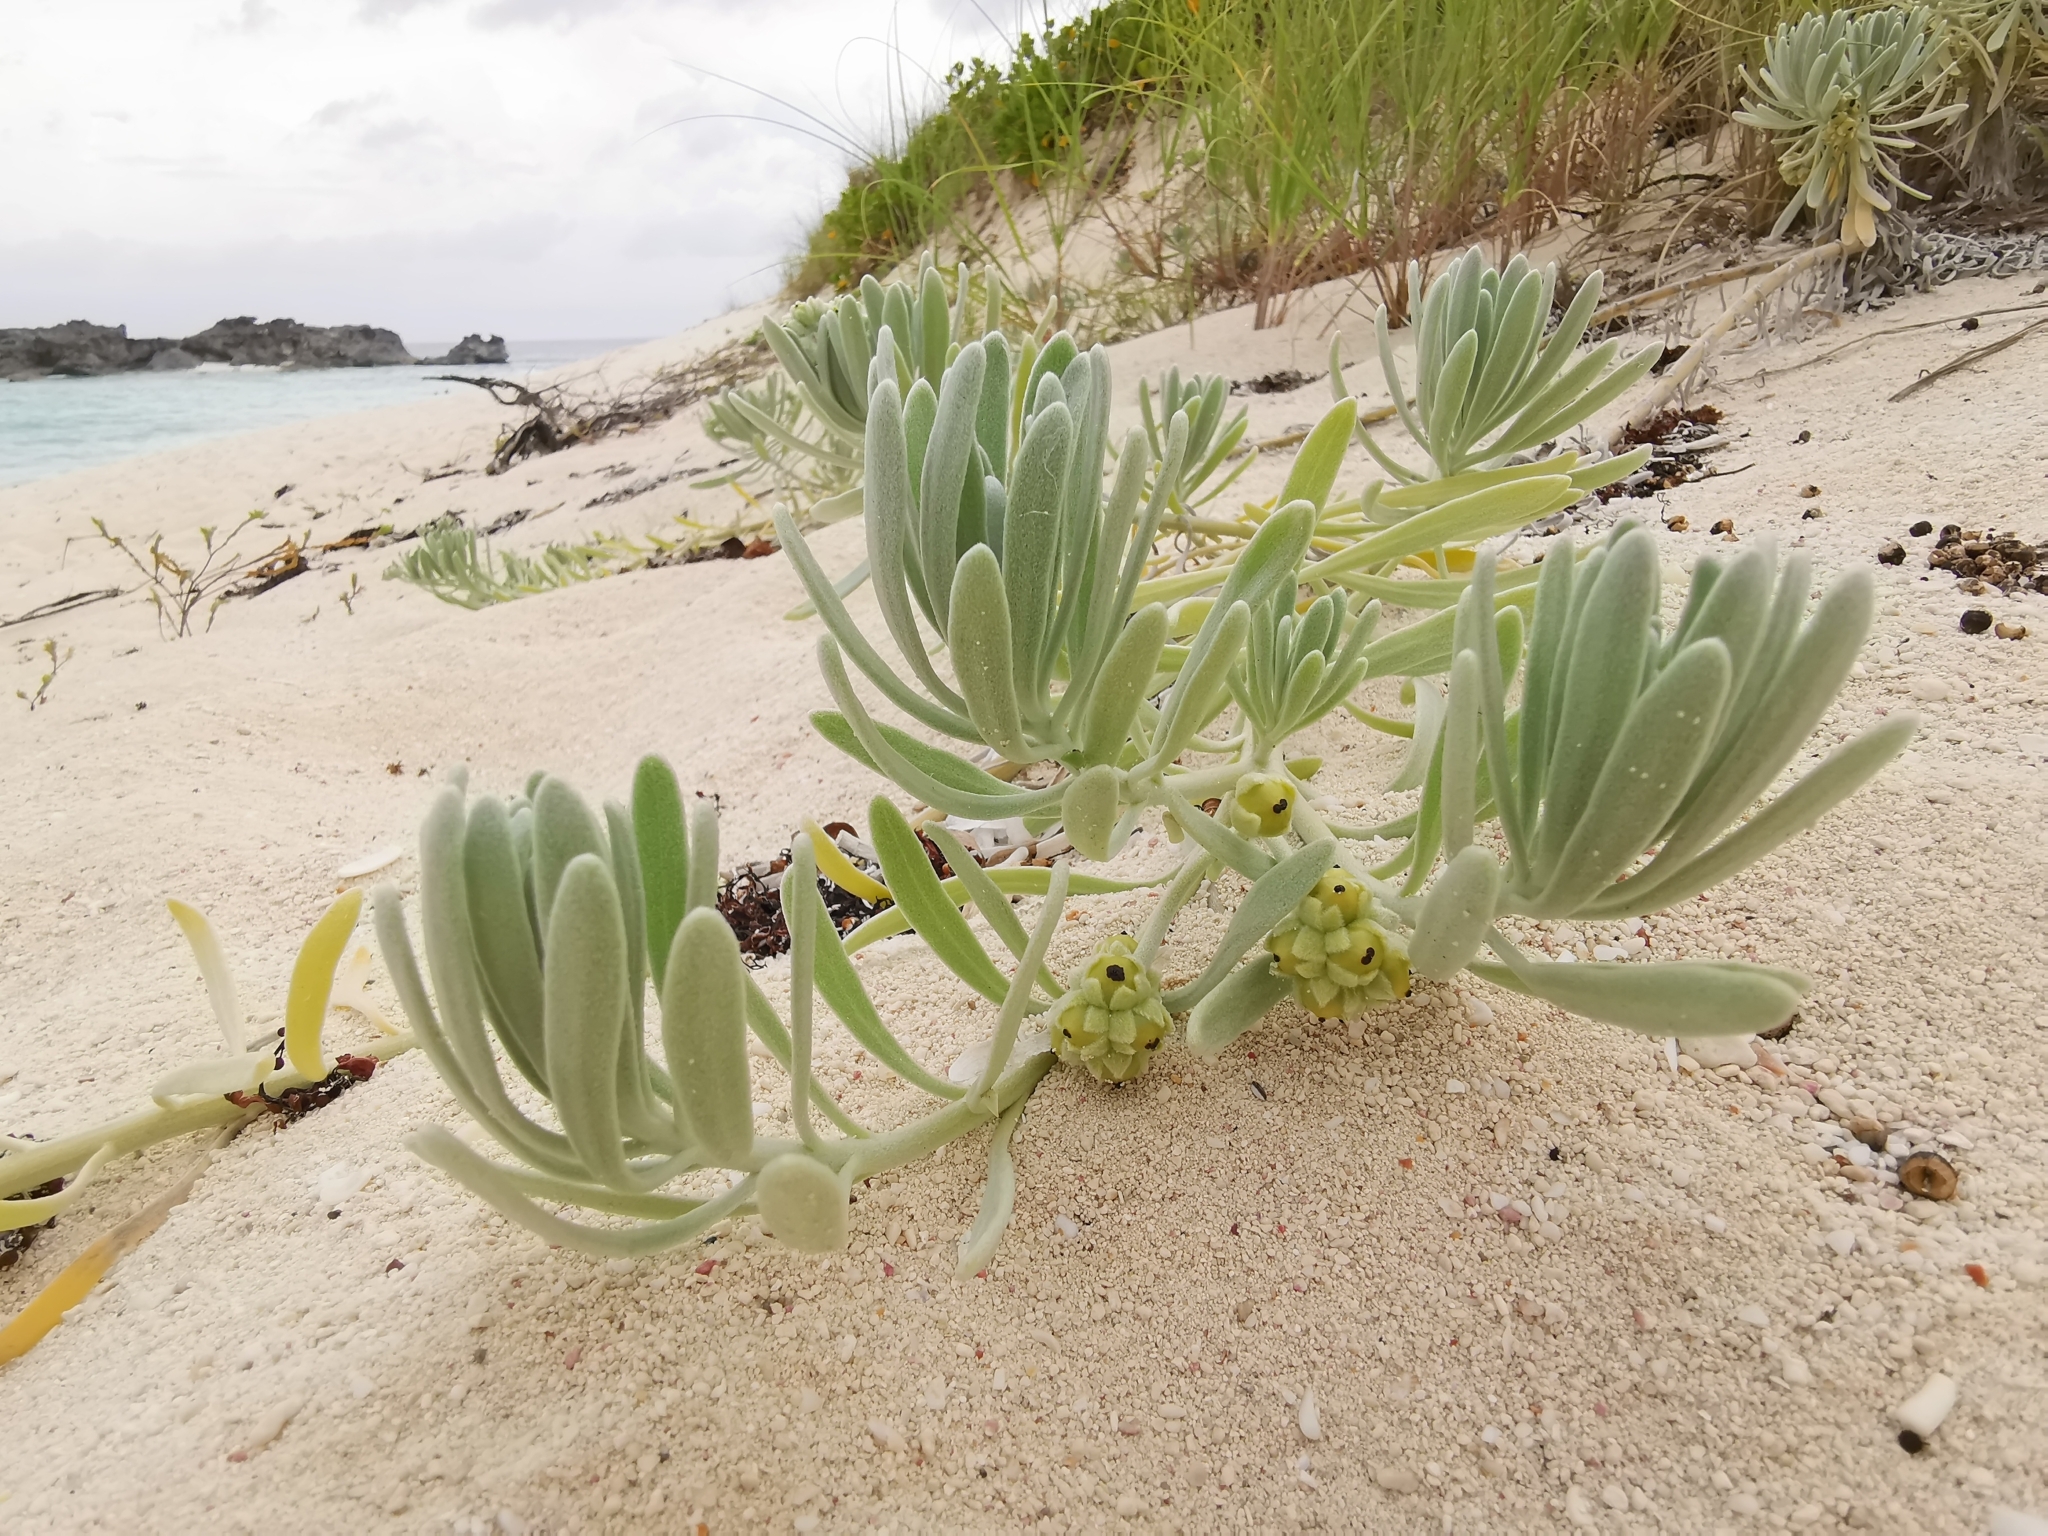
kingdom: Plantae
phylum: Tracheophyta
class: Magnoliopsida
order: Boraginales
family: Heliotropiaceae
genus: Tournefortia
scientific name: Tournefortia gnaphalodes
